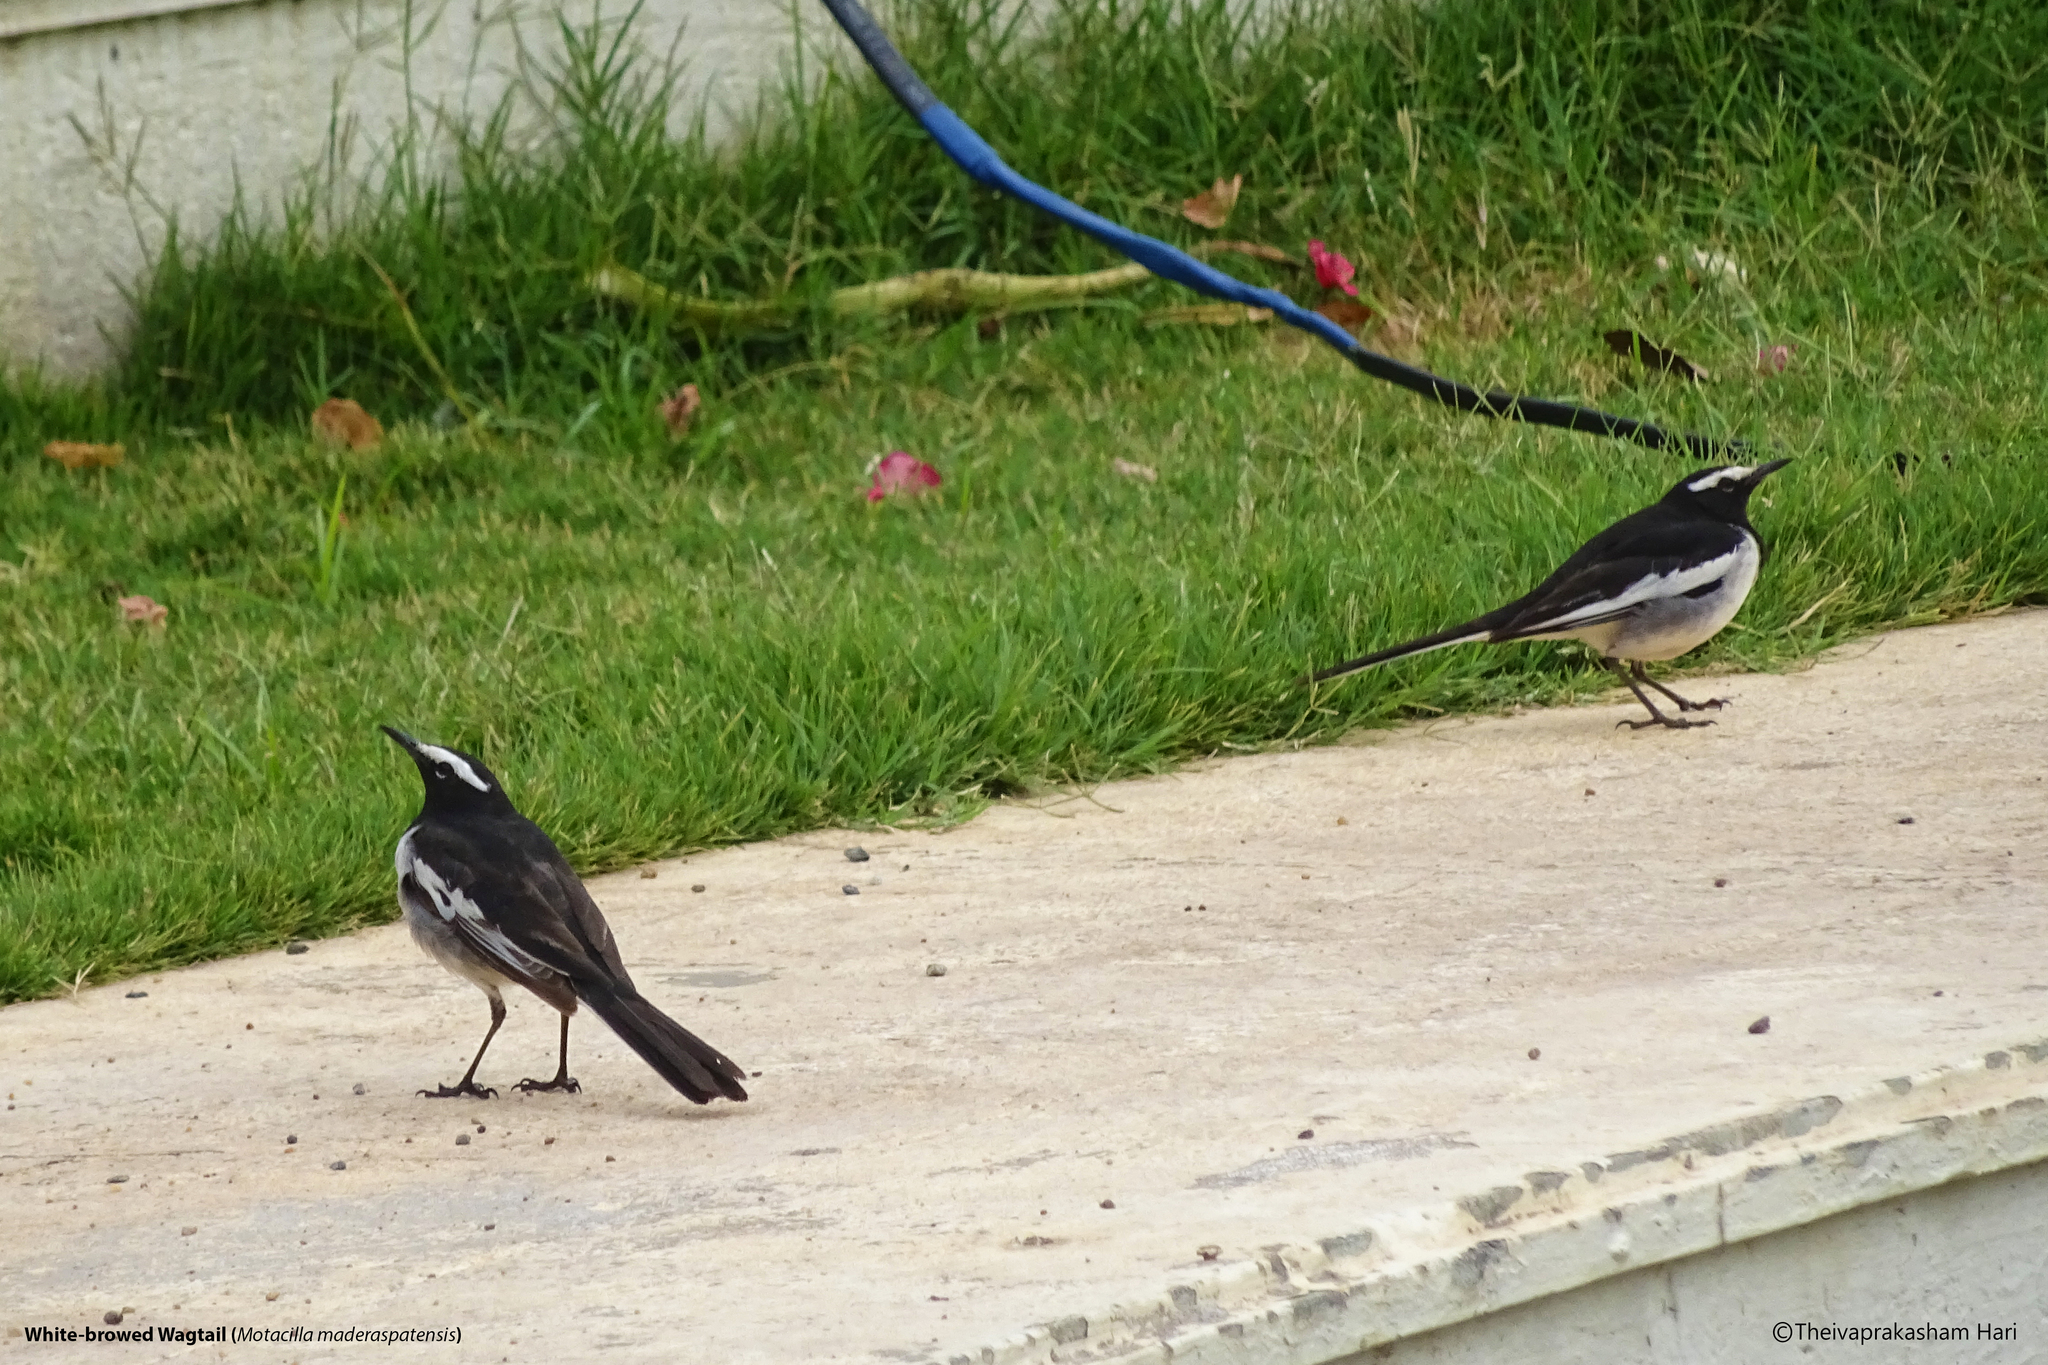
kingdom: Animalia
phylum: Chordata
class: Aves
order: Passeriformes
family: Motacillidae
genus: Motacilla
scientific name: Motacilla maderaspatensis
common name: White-browed wagtail
